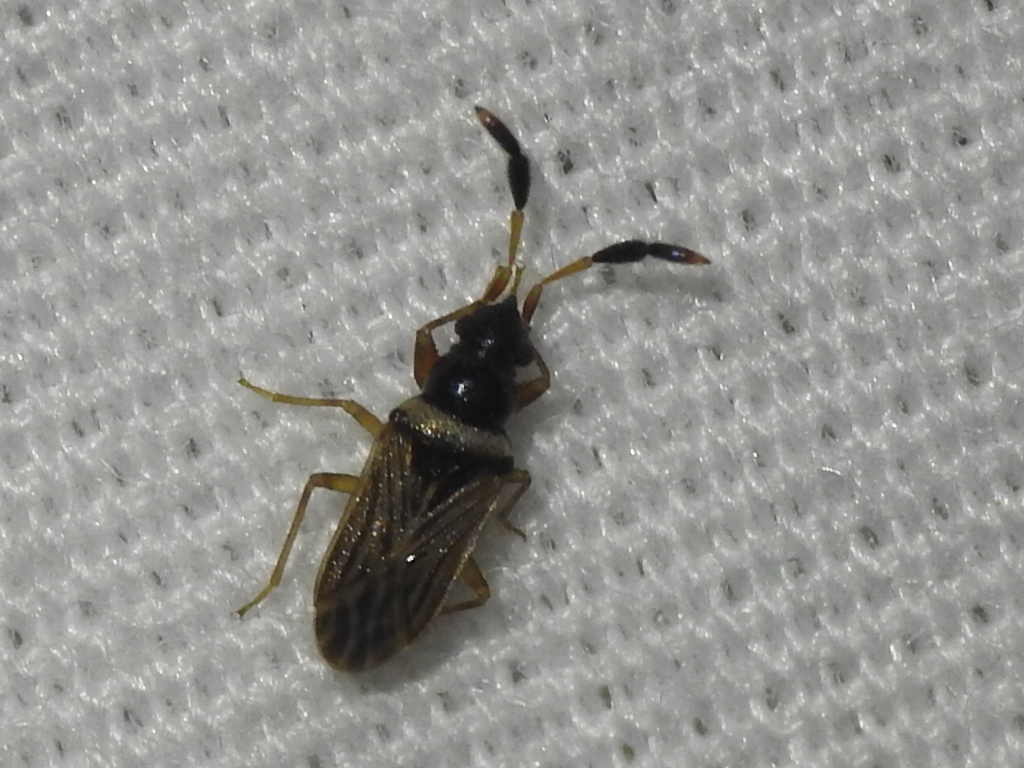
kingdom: Animalia
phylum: Arthropoda
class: Insecta
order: Hemiptera
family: Rhyparochromidae
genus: Ptochiomera
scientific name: Ptochiomera nodosa
